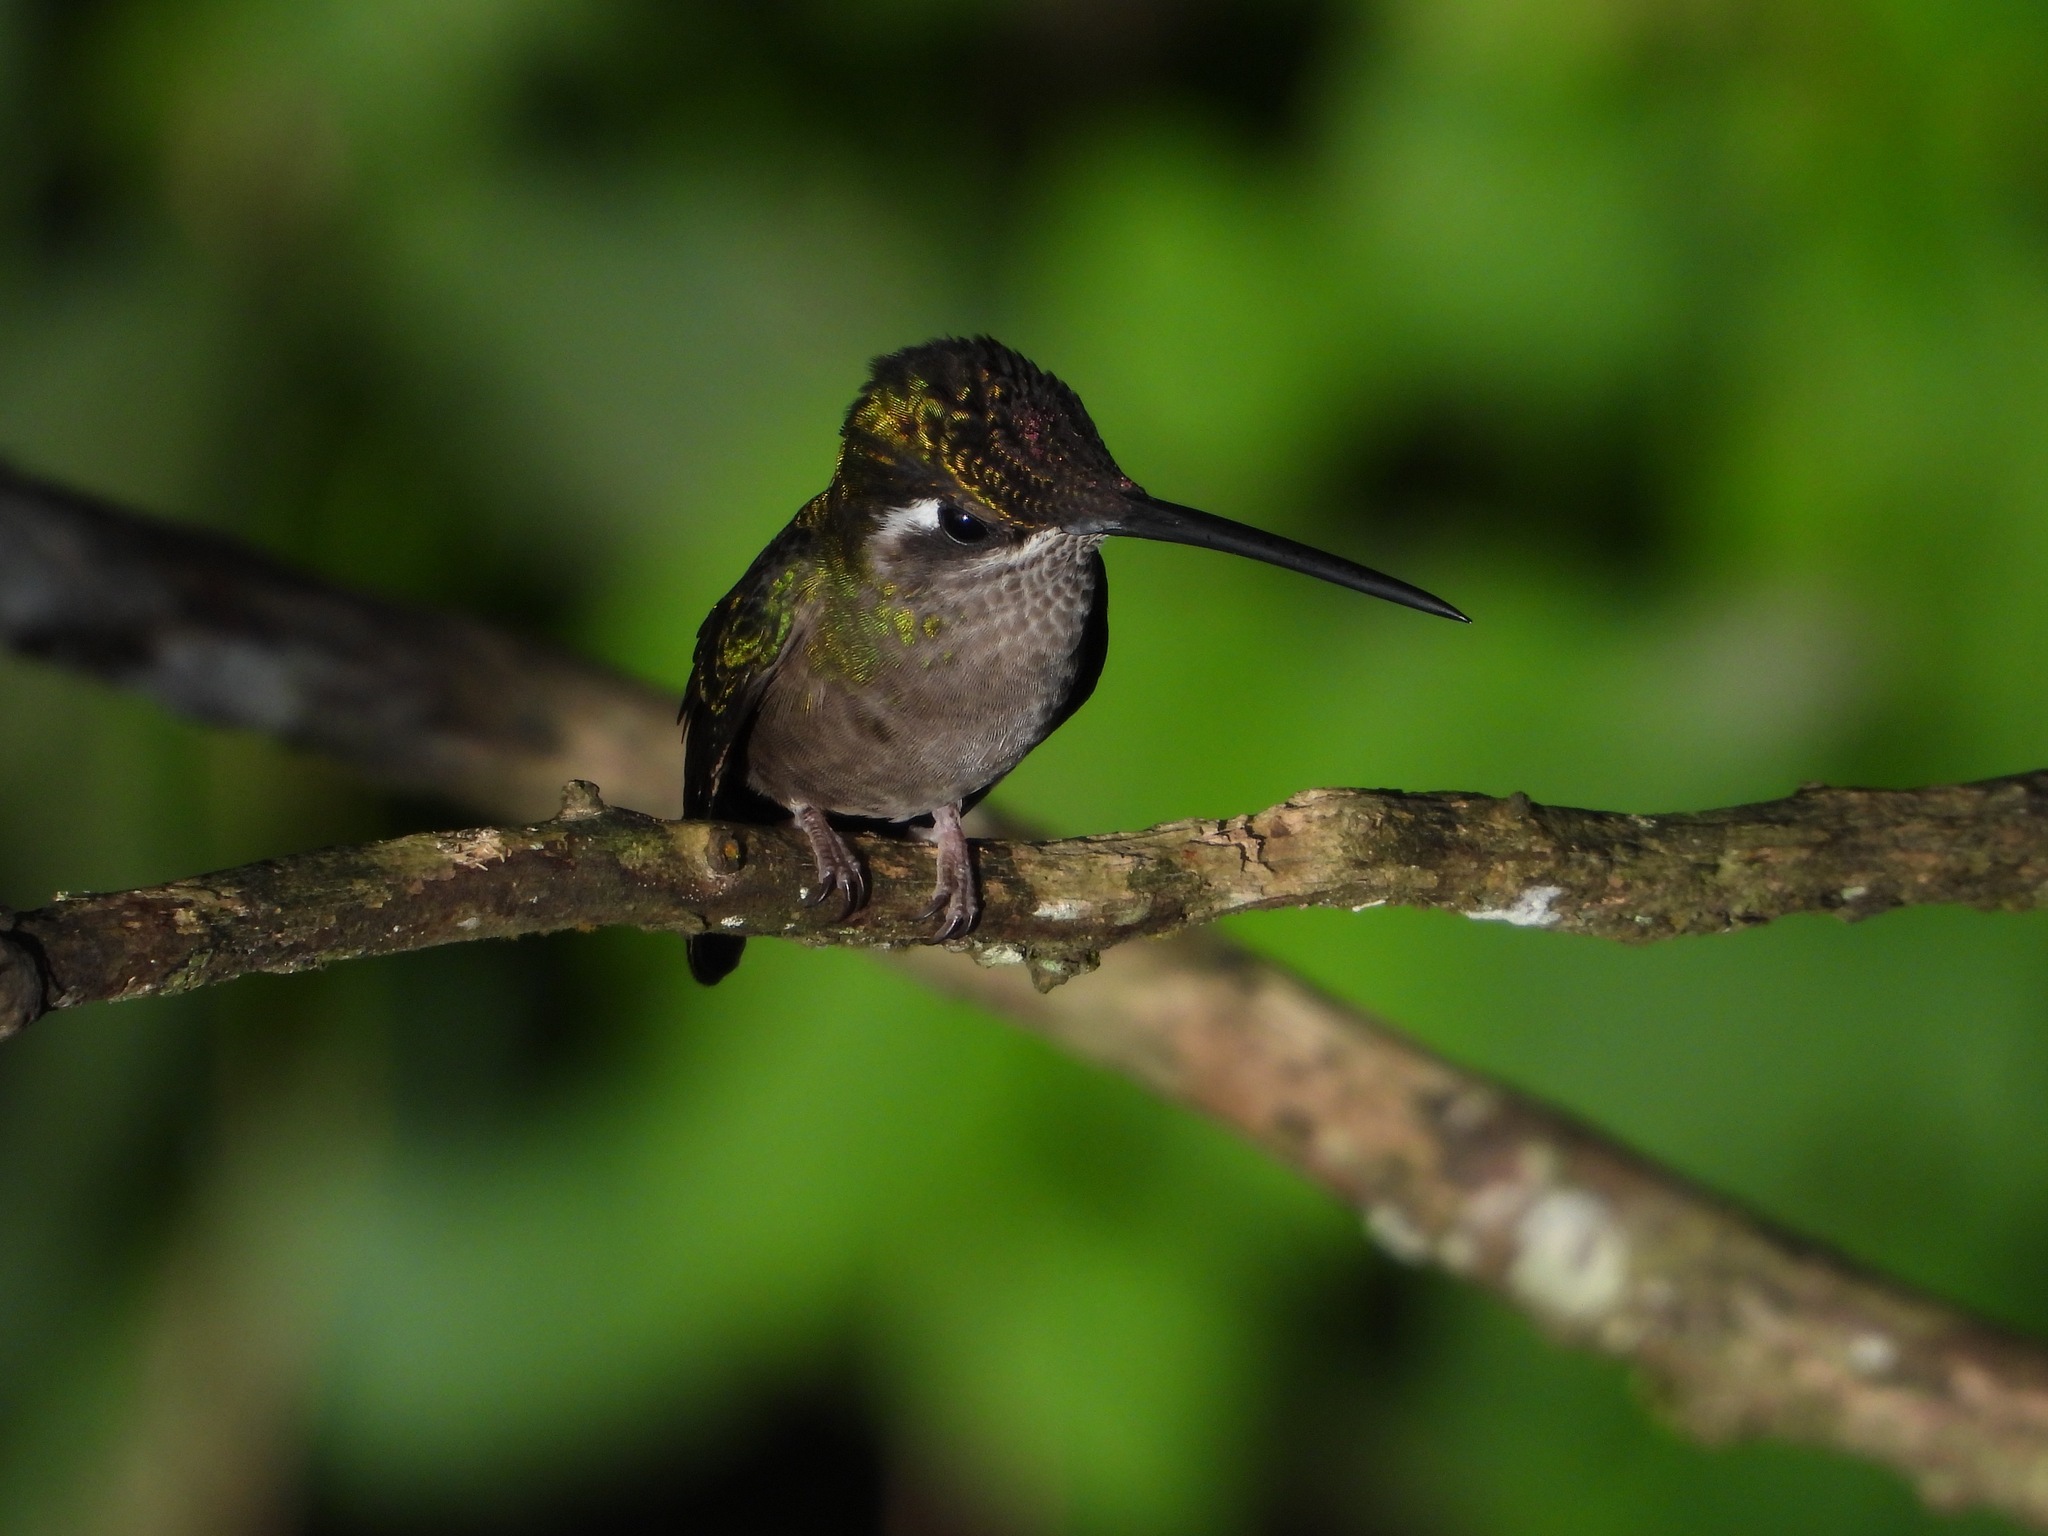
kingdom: Animalia
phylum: Chordata
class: Aves
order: Apodiformes
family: Trochilidae
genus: Eugenes
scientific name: Eugenes fulgens
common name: Magnificent hummingbird
